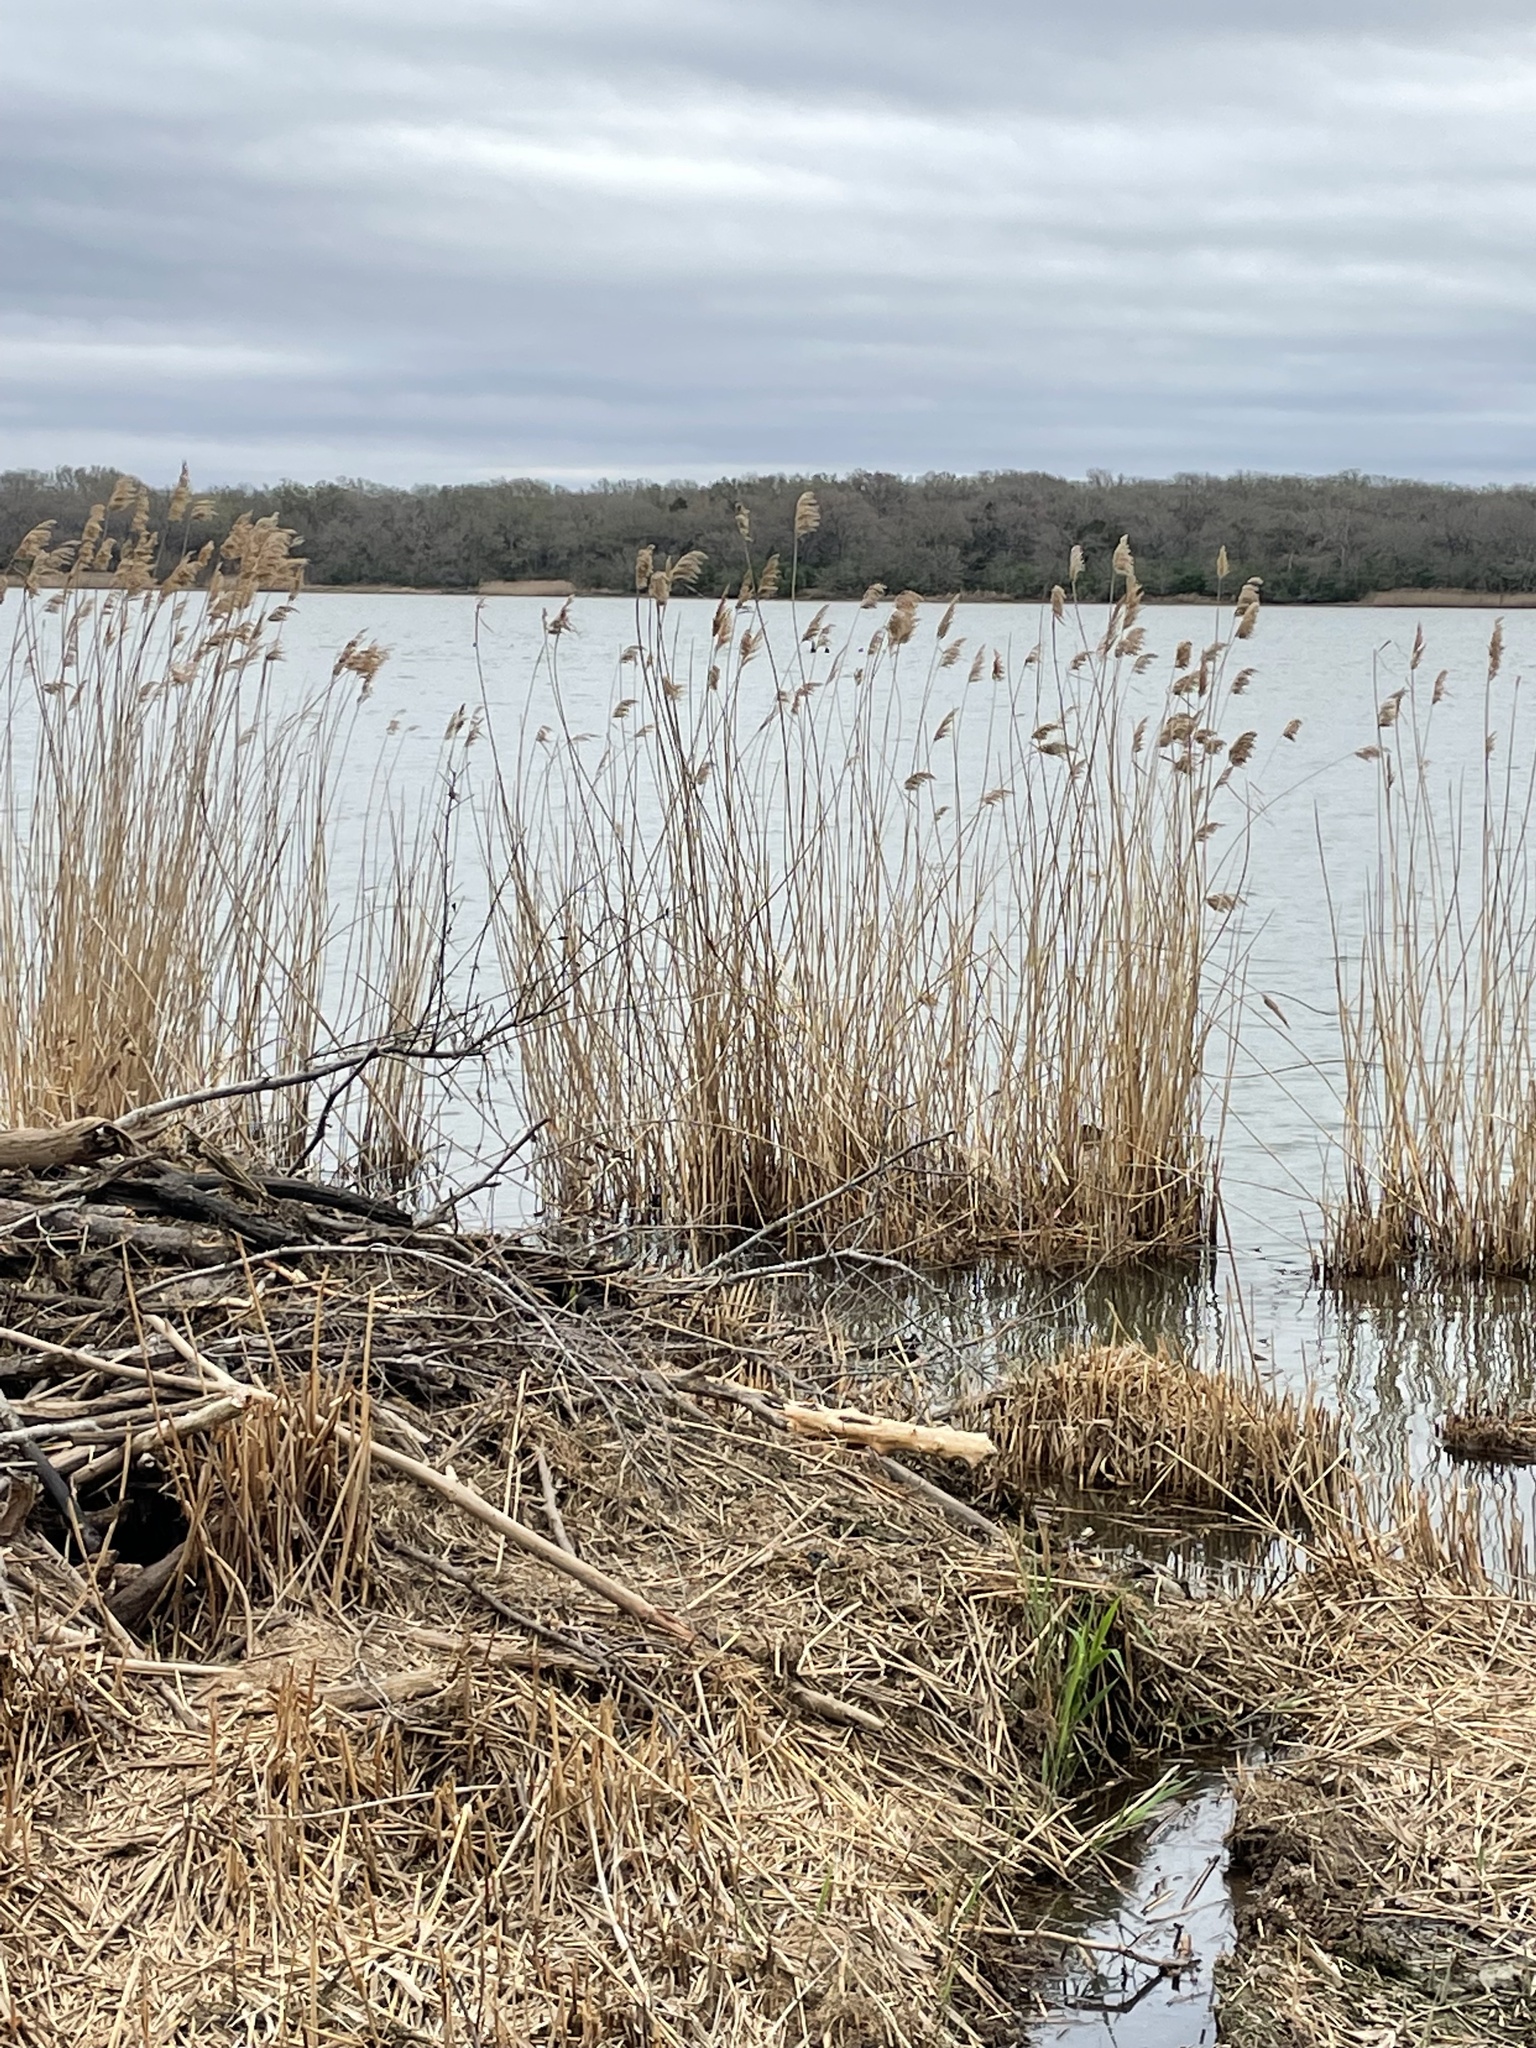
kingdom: Plantae
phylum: Tracheophyta
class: Liliopsida
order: Poales
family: Poaceae
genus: Phragmites
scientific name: Phragmites australis
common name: Common reed
